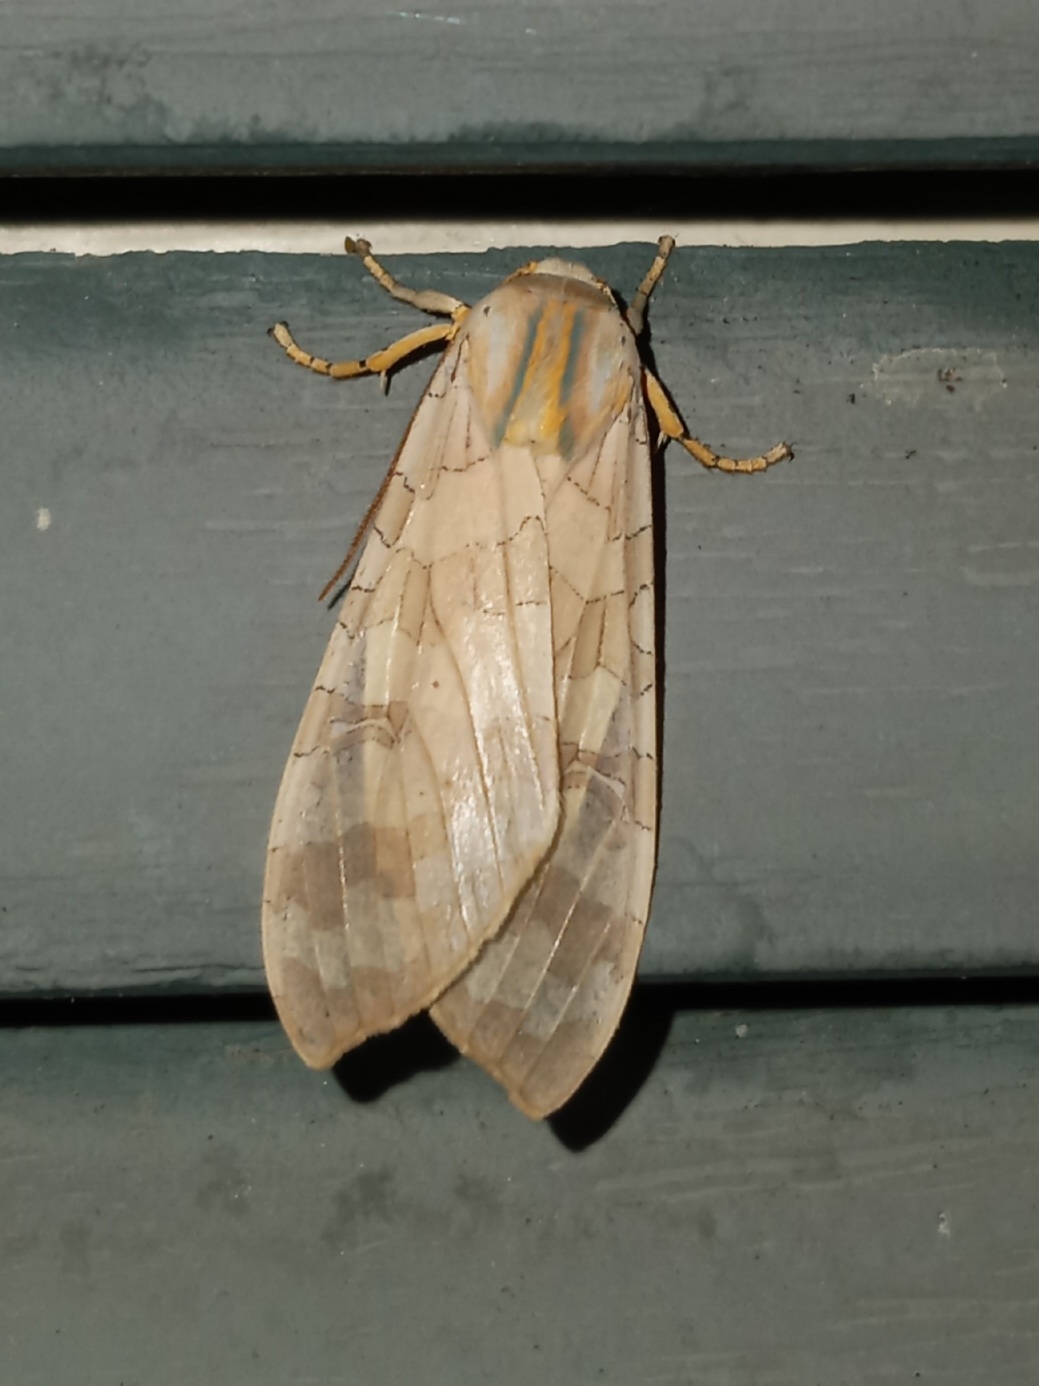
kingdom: Animalia
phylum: Arthropoda
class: Insecta
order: Lepidoptera
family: Erebidae
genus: Halysidota
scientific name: Halysidota tessellaris
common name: Banded tussock moth
